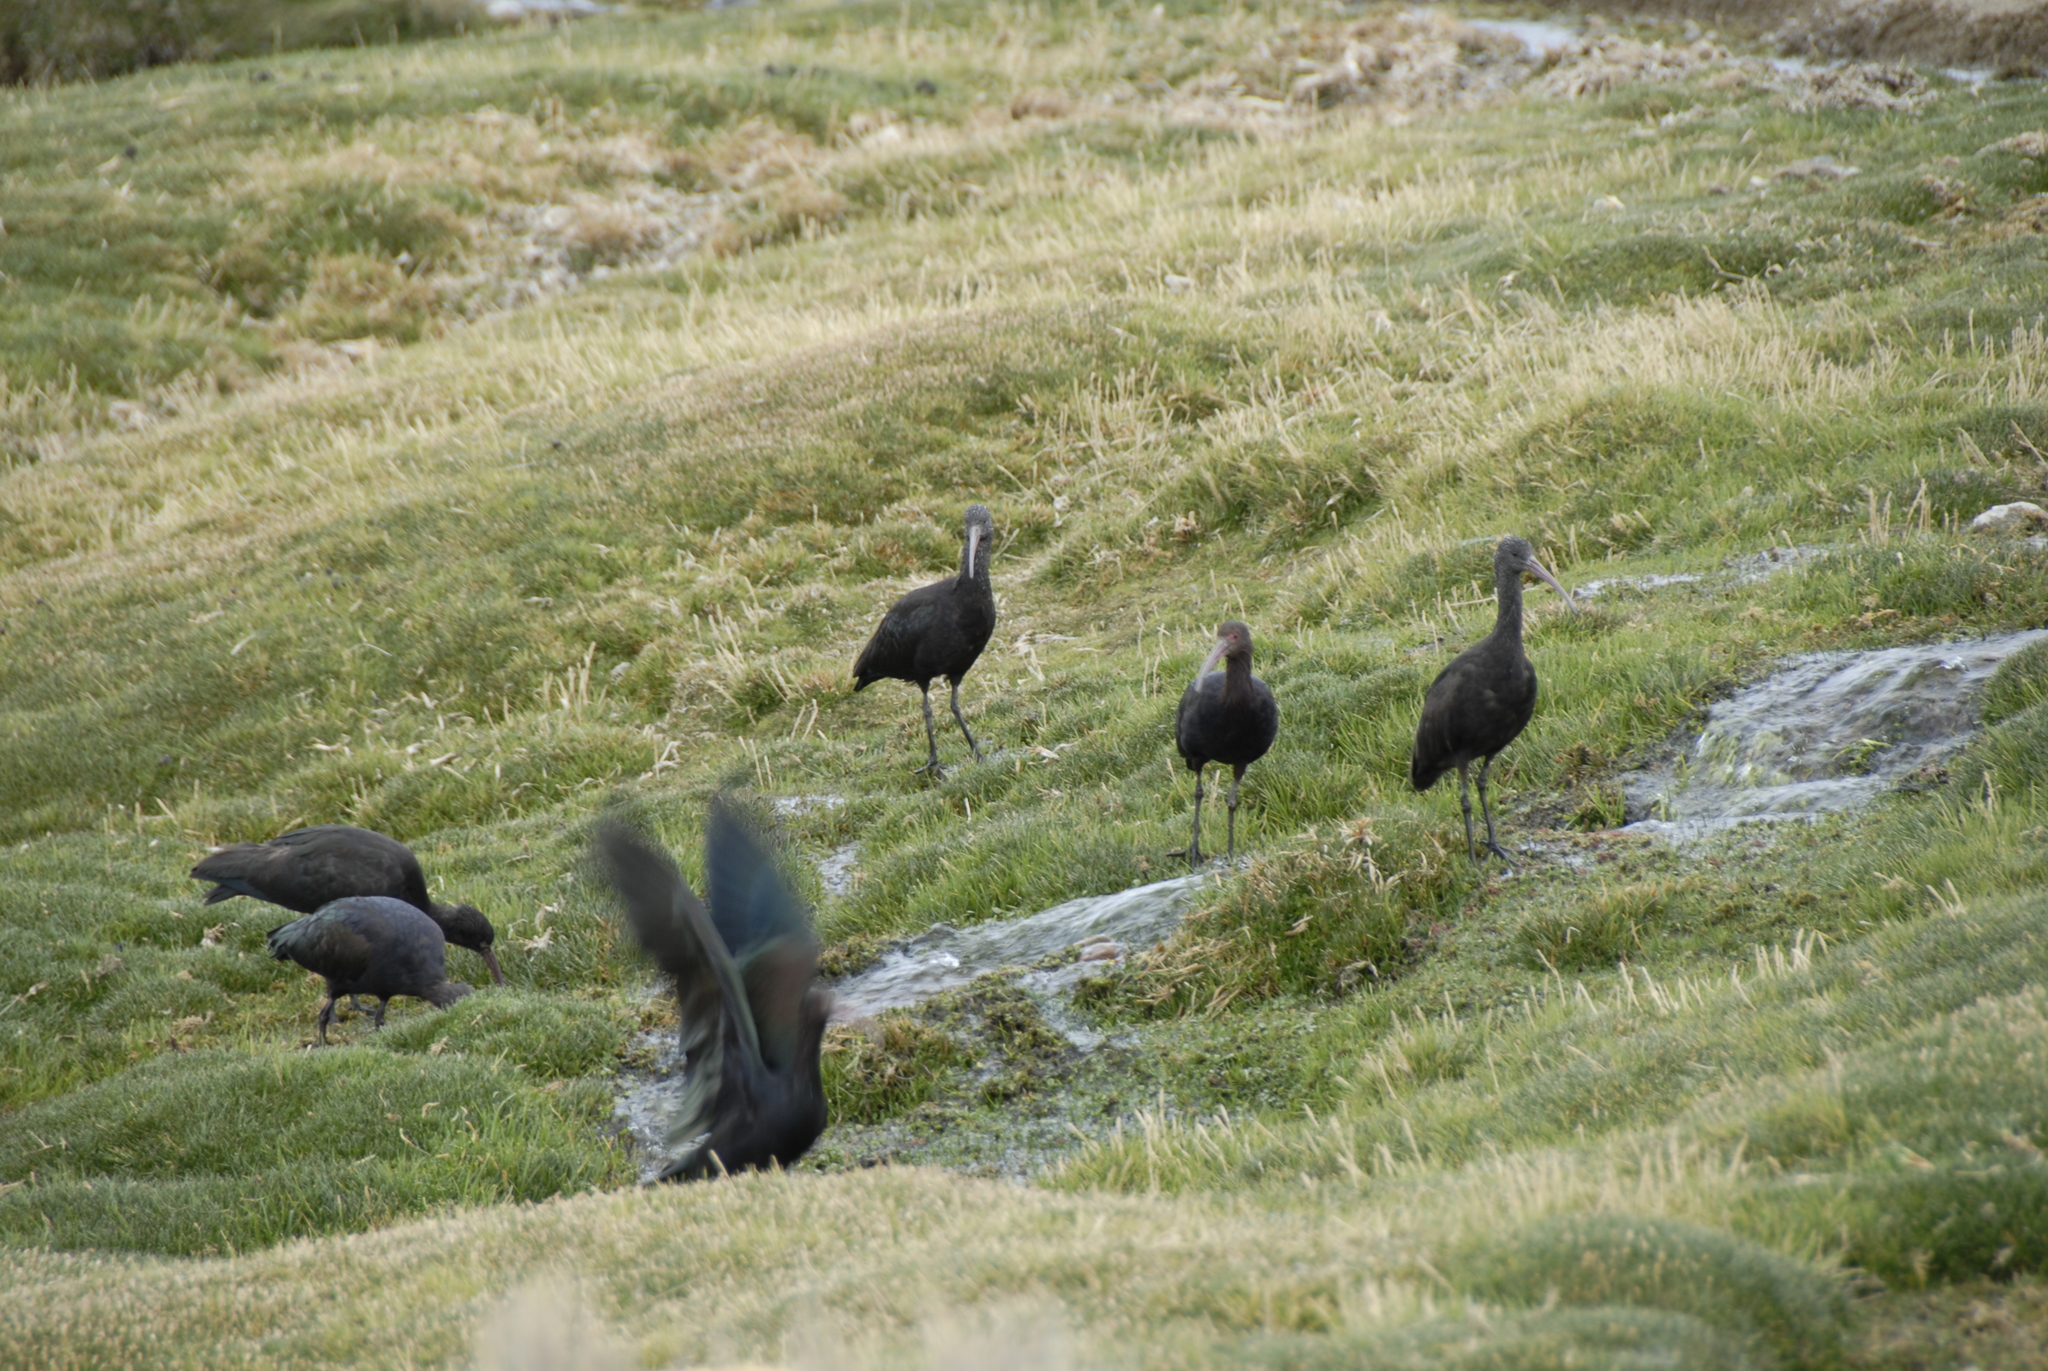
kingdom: Animalia
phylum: Chordata
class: Aves
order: Pelecaniformes
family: Threskiornithidae
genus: Plegadis
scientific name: Plegadis ridgwayi
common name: Puna ibis
